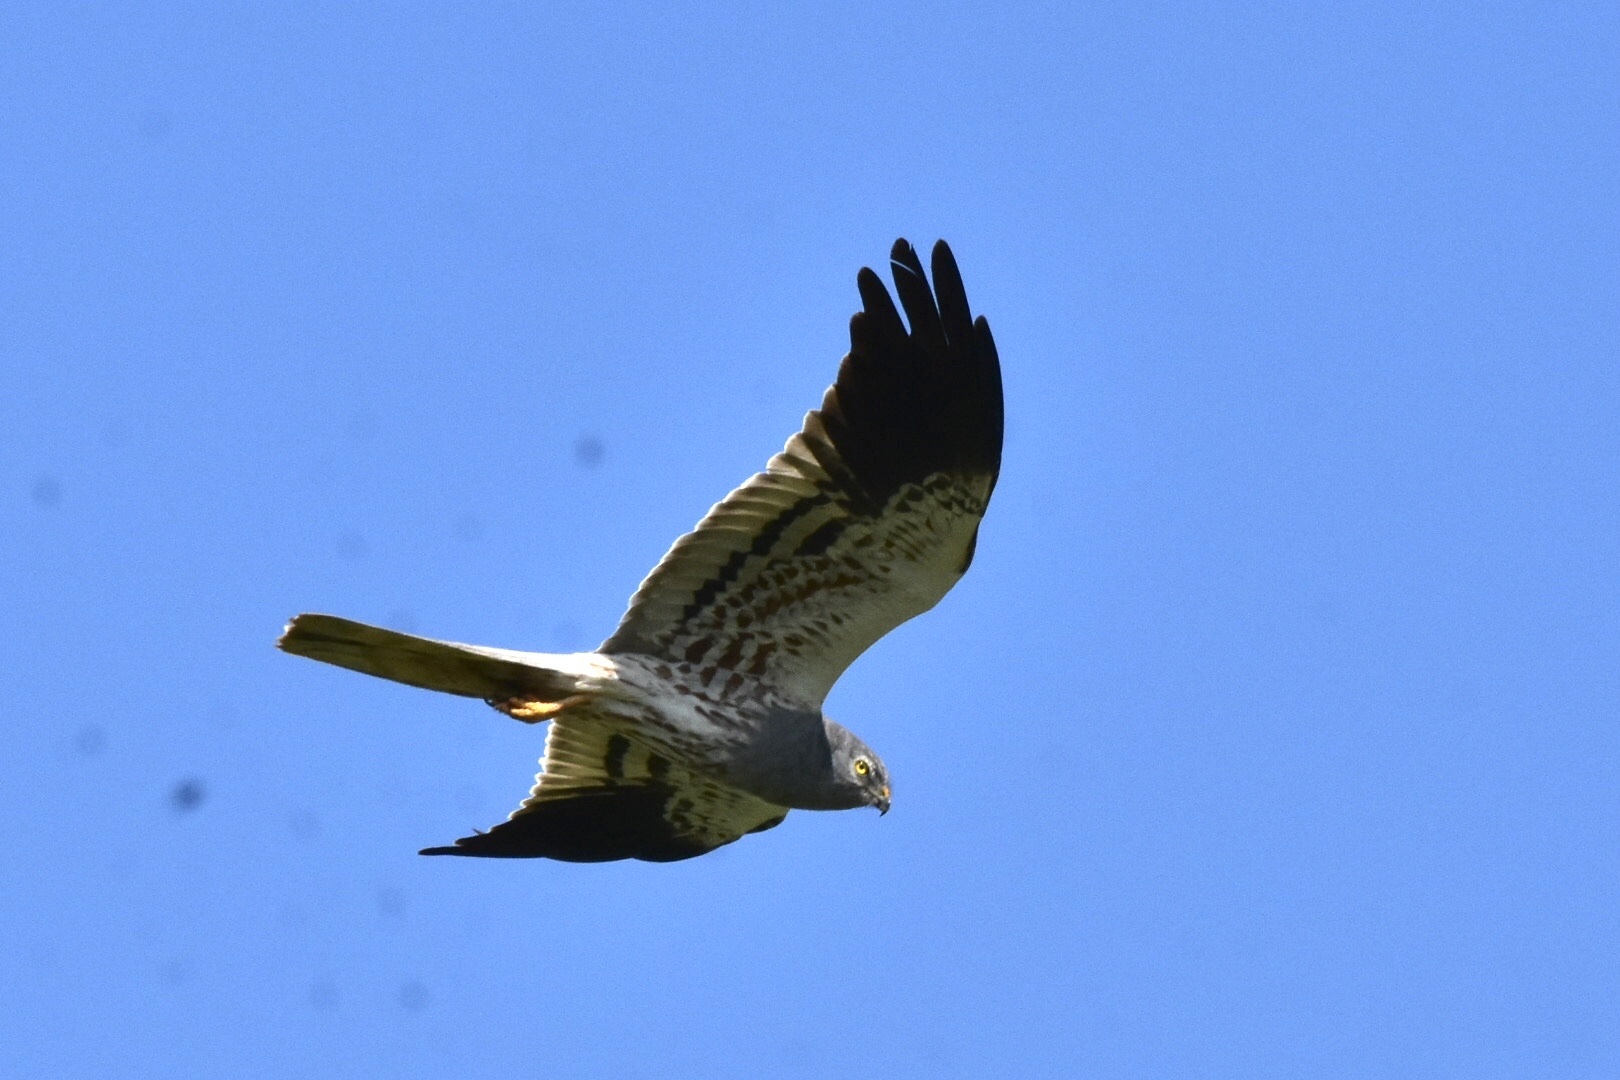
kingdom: Animalia
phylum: Chordata
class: Aves
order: Accipitriformes
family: Accipitridae
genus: Circus
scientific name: Circus pygargus
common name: Montagu's harrier
